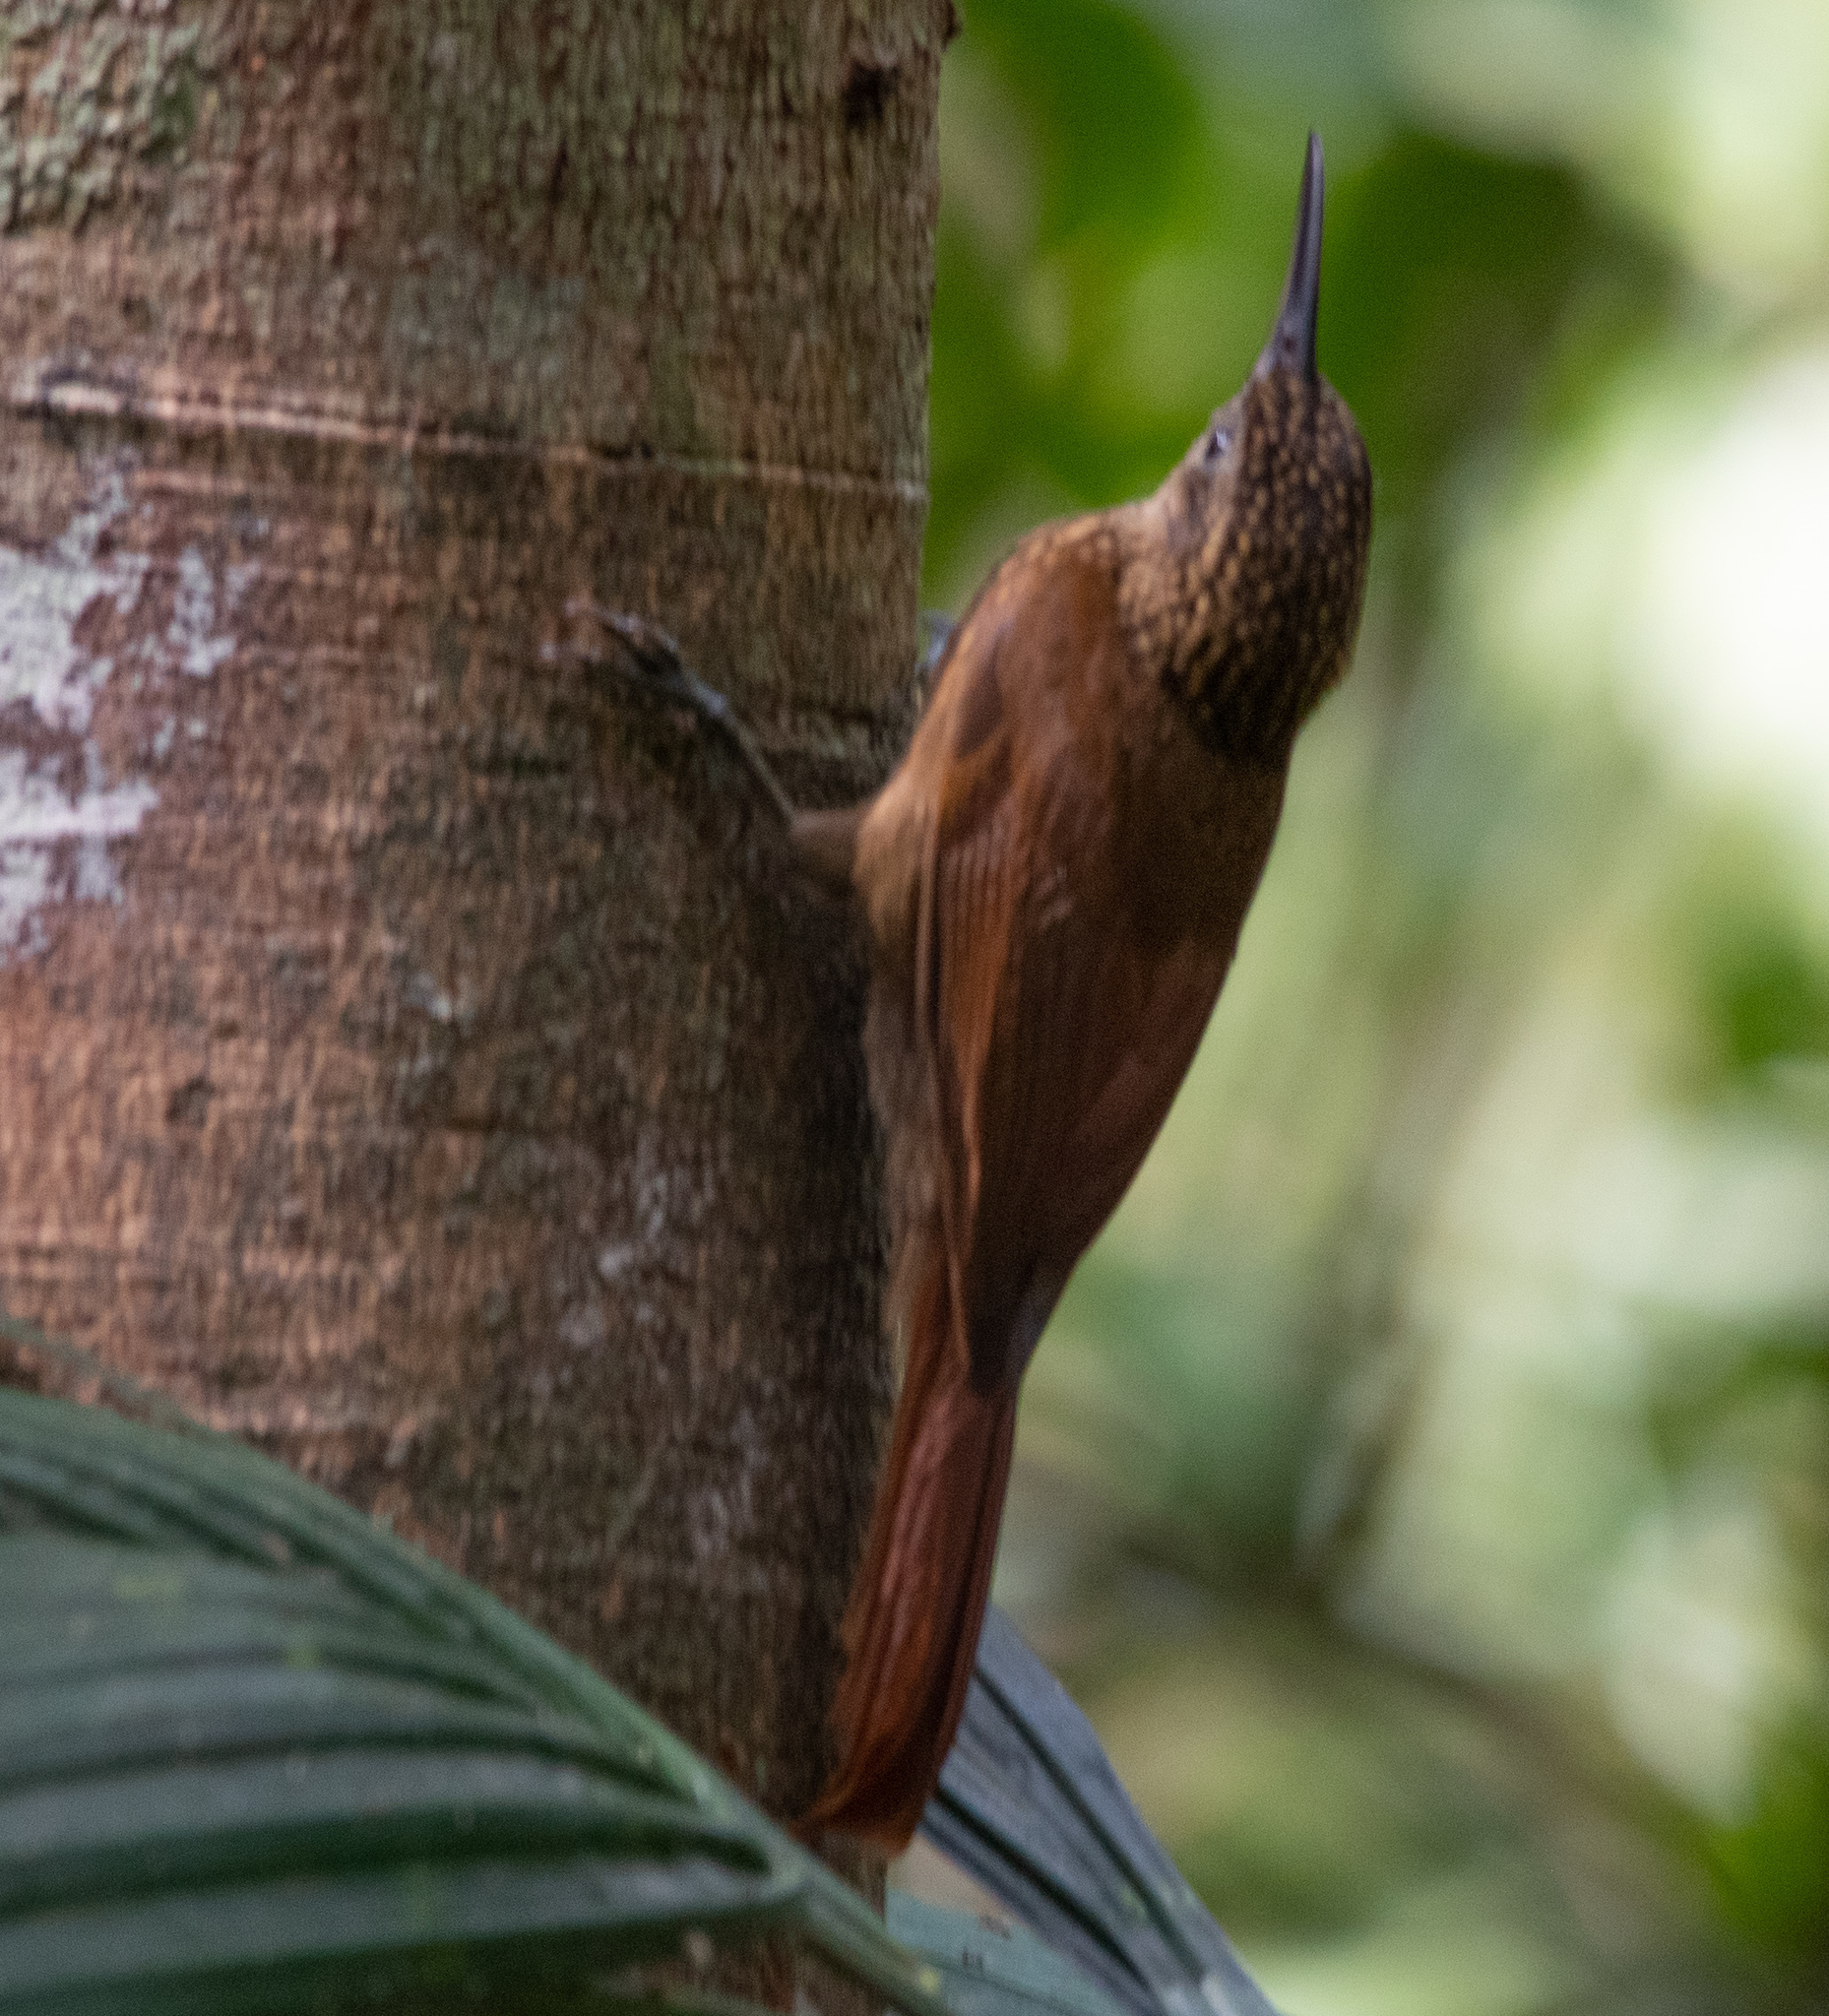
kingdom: Animalia
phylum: Chordata
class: Aves
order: Passeriformes
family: Furnariidae
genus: Xiphorhynchus
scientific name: Xiphorhynchus picus
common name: Straight-billed woodcreeper
